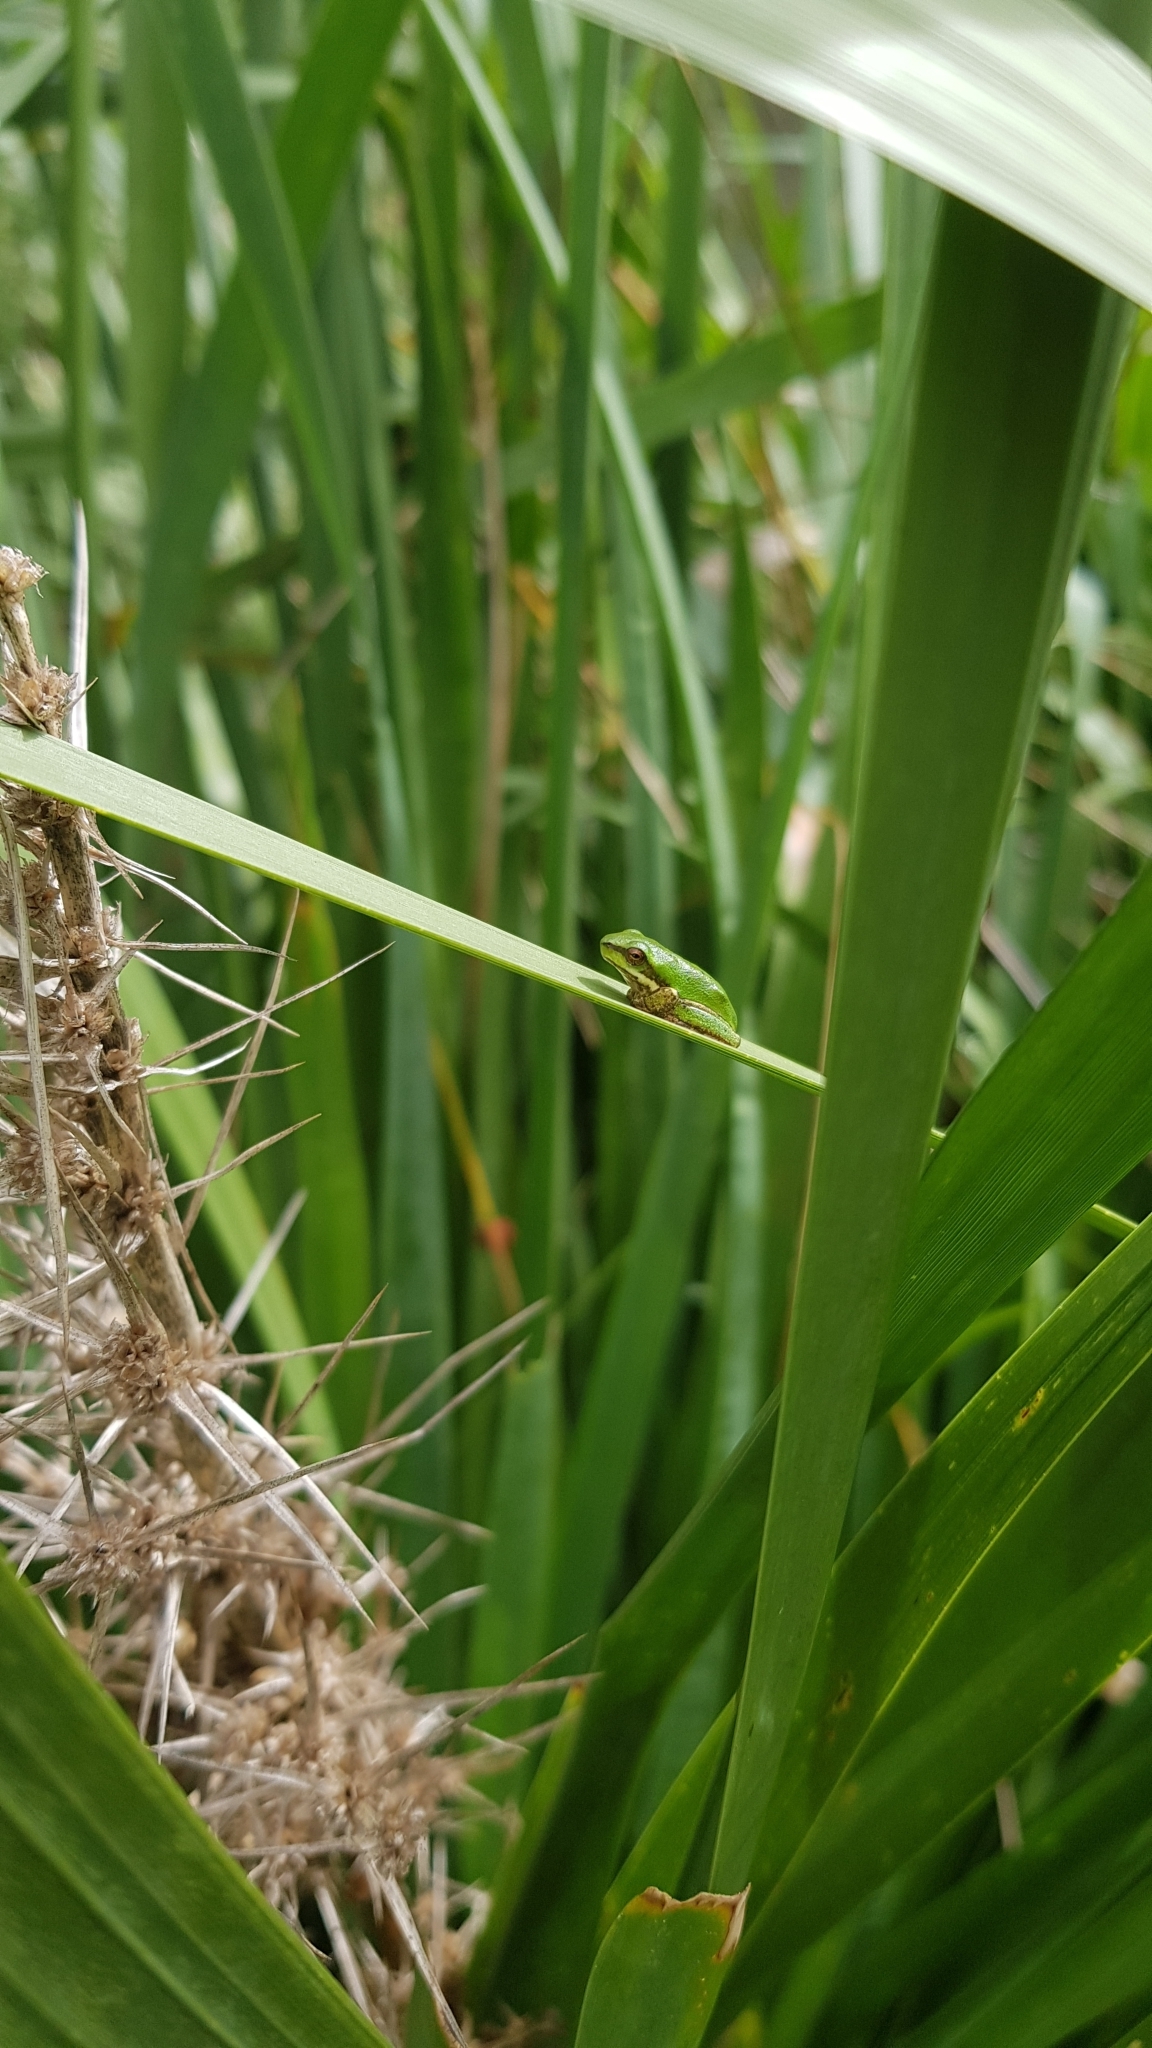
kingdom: Animalia
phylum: Chordata
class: Amphibia
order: Anura
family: Pelodryadidae
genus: Litoria
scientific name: Litoria fallax
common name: Eastern dwarf treefrog
